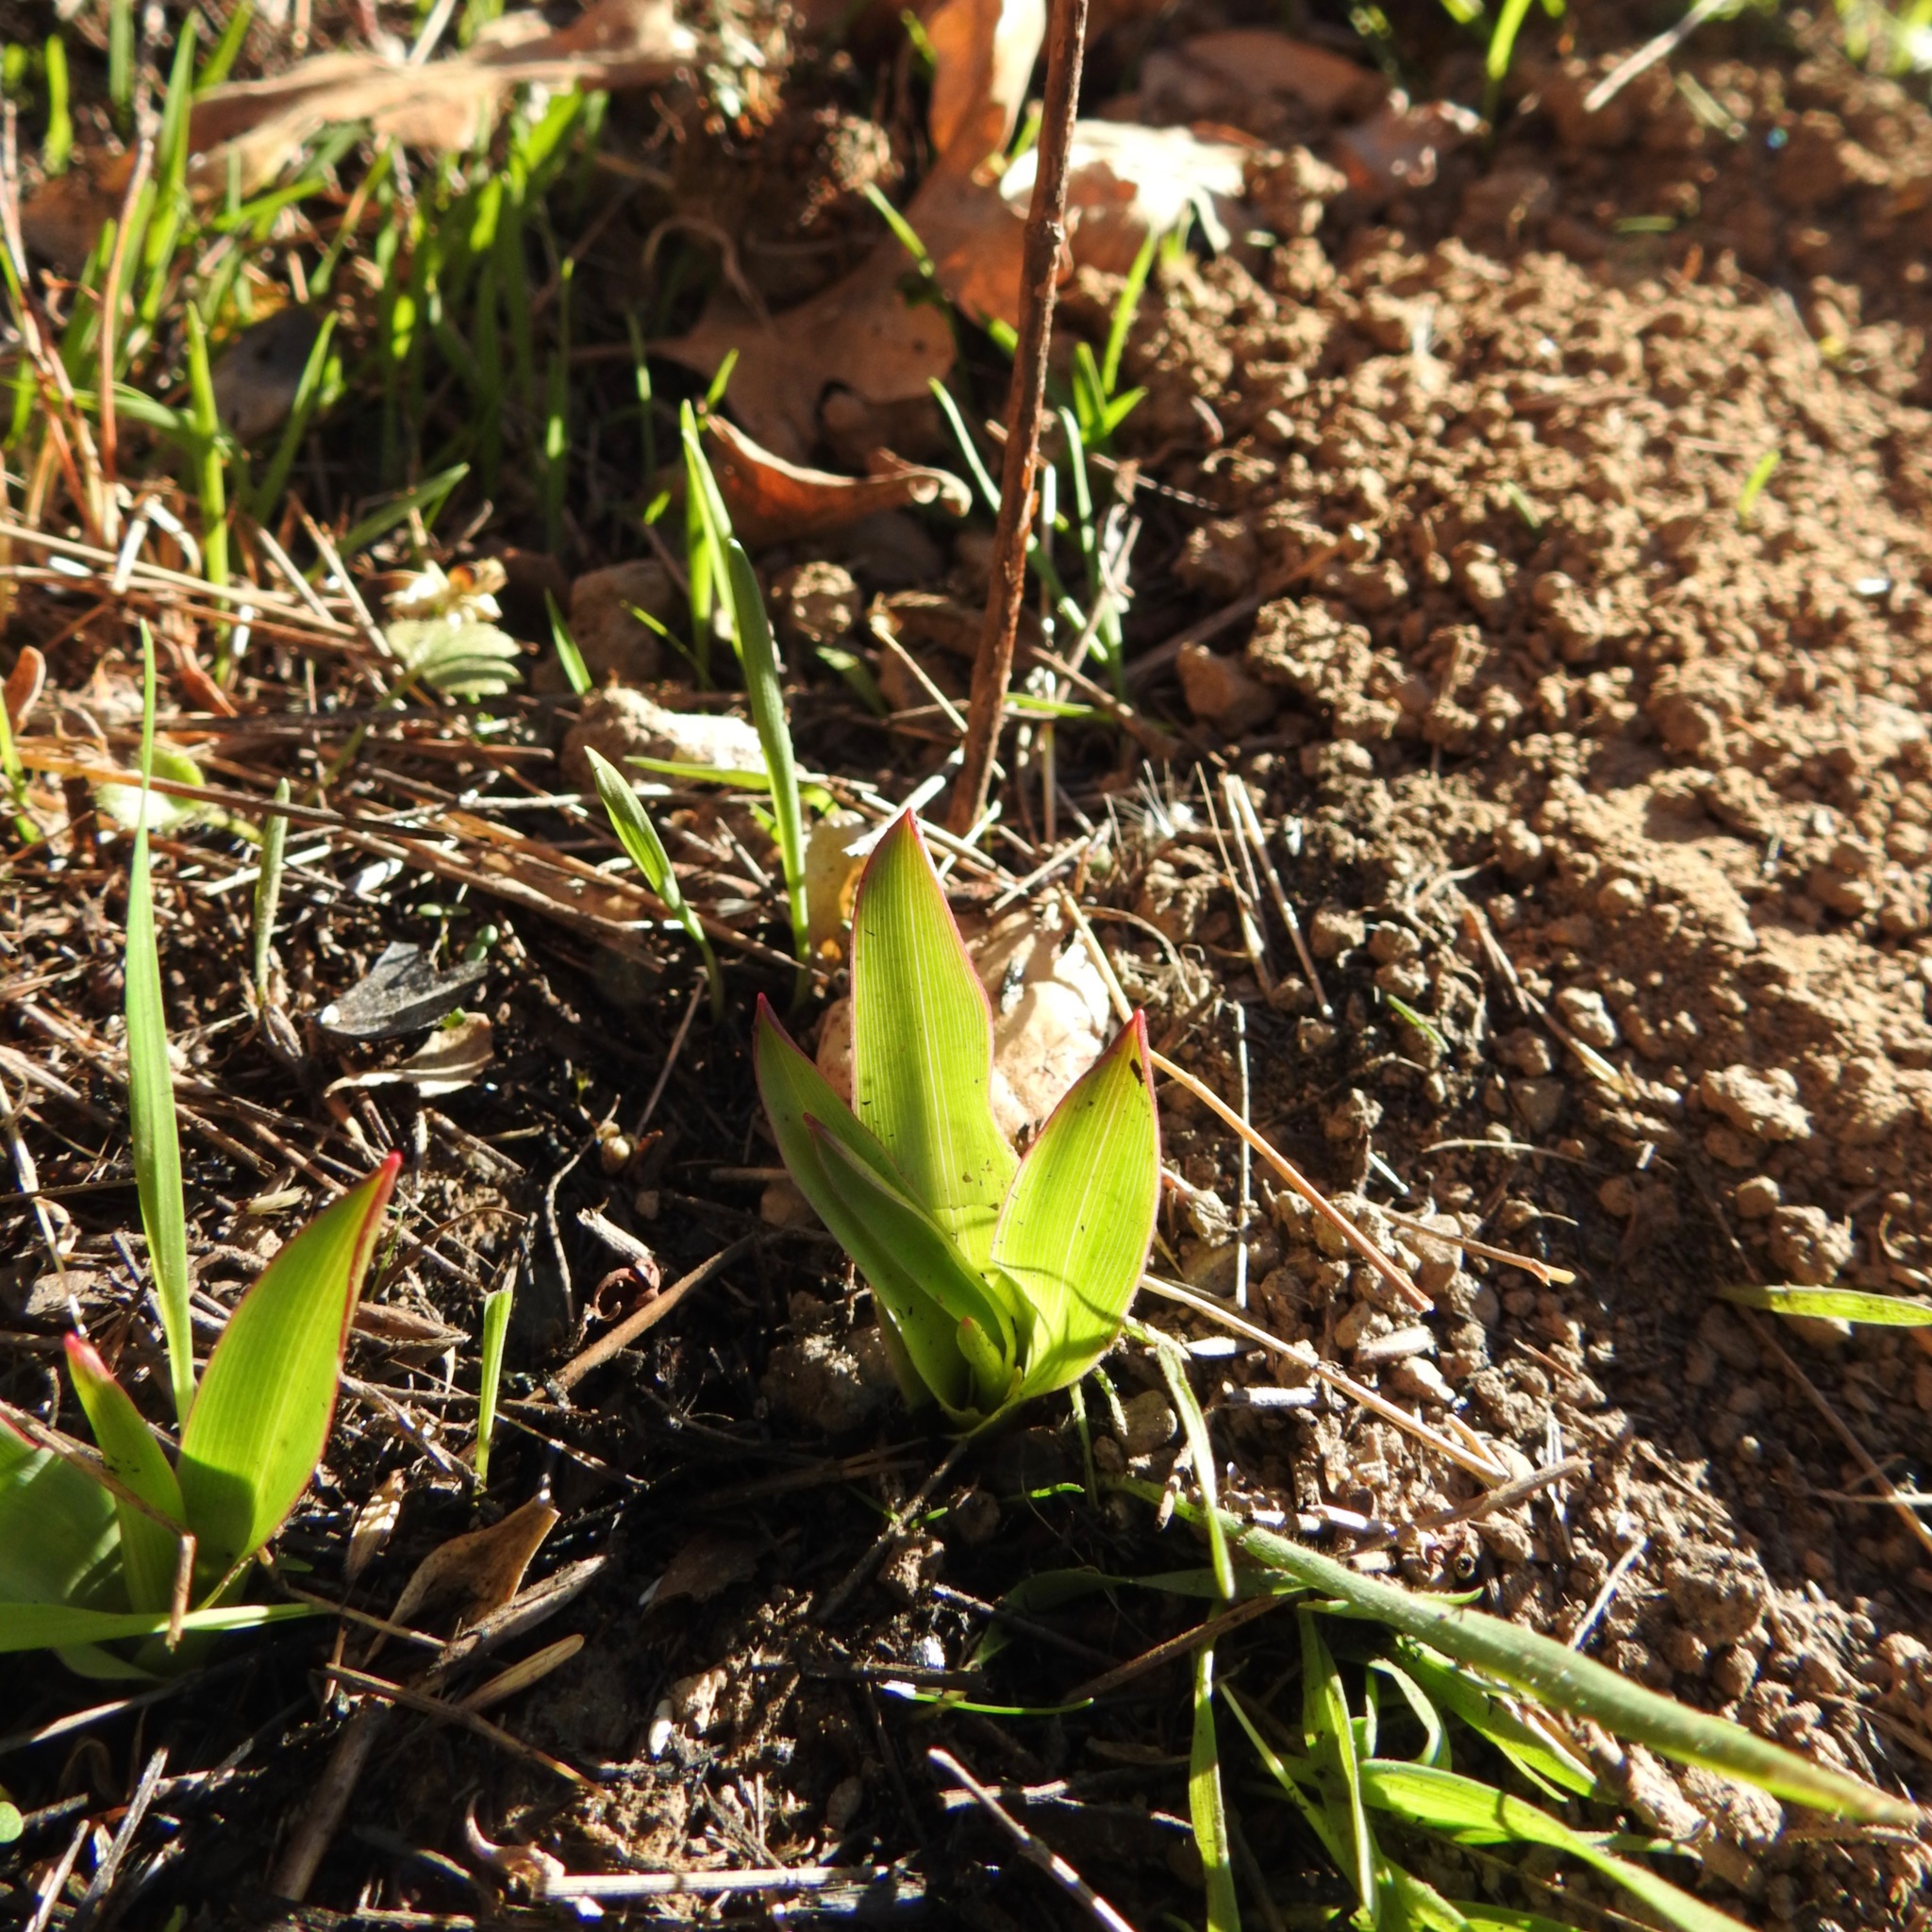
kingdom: Plantae
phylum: Tracheophyta
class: Liliopsida
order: Asparagales
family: Asparagaceae
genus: Chlorogalum
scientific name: Chlorogalum pomeridianum
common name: Amole
